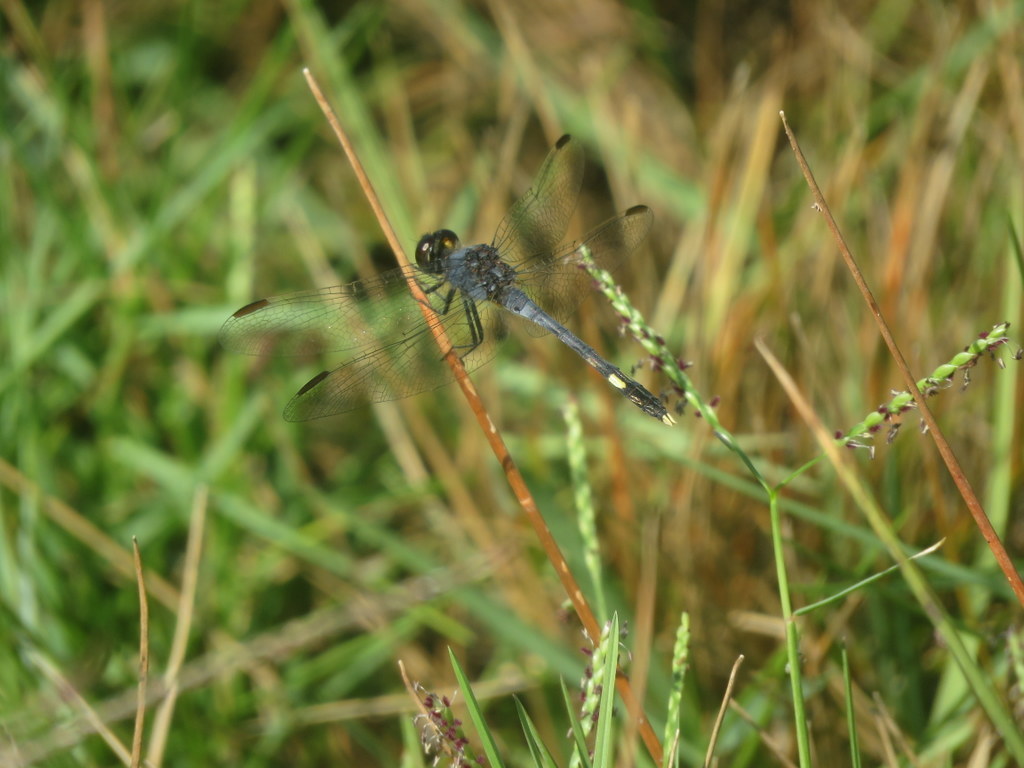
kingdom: Animalia
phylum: Arthropoda
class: Insecta
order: Odonata
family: Libellulidae
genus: Erythrodiplax
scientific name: Erythrodiplax nigricans
